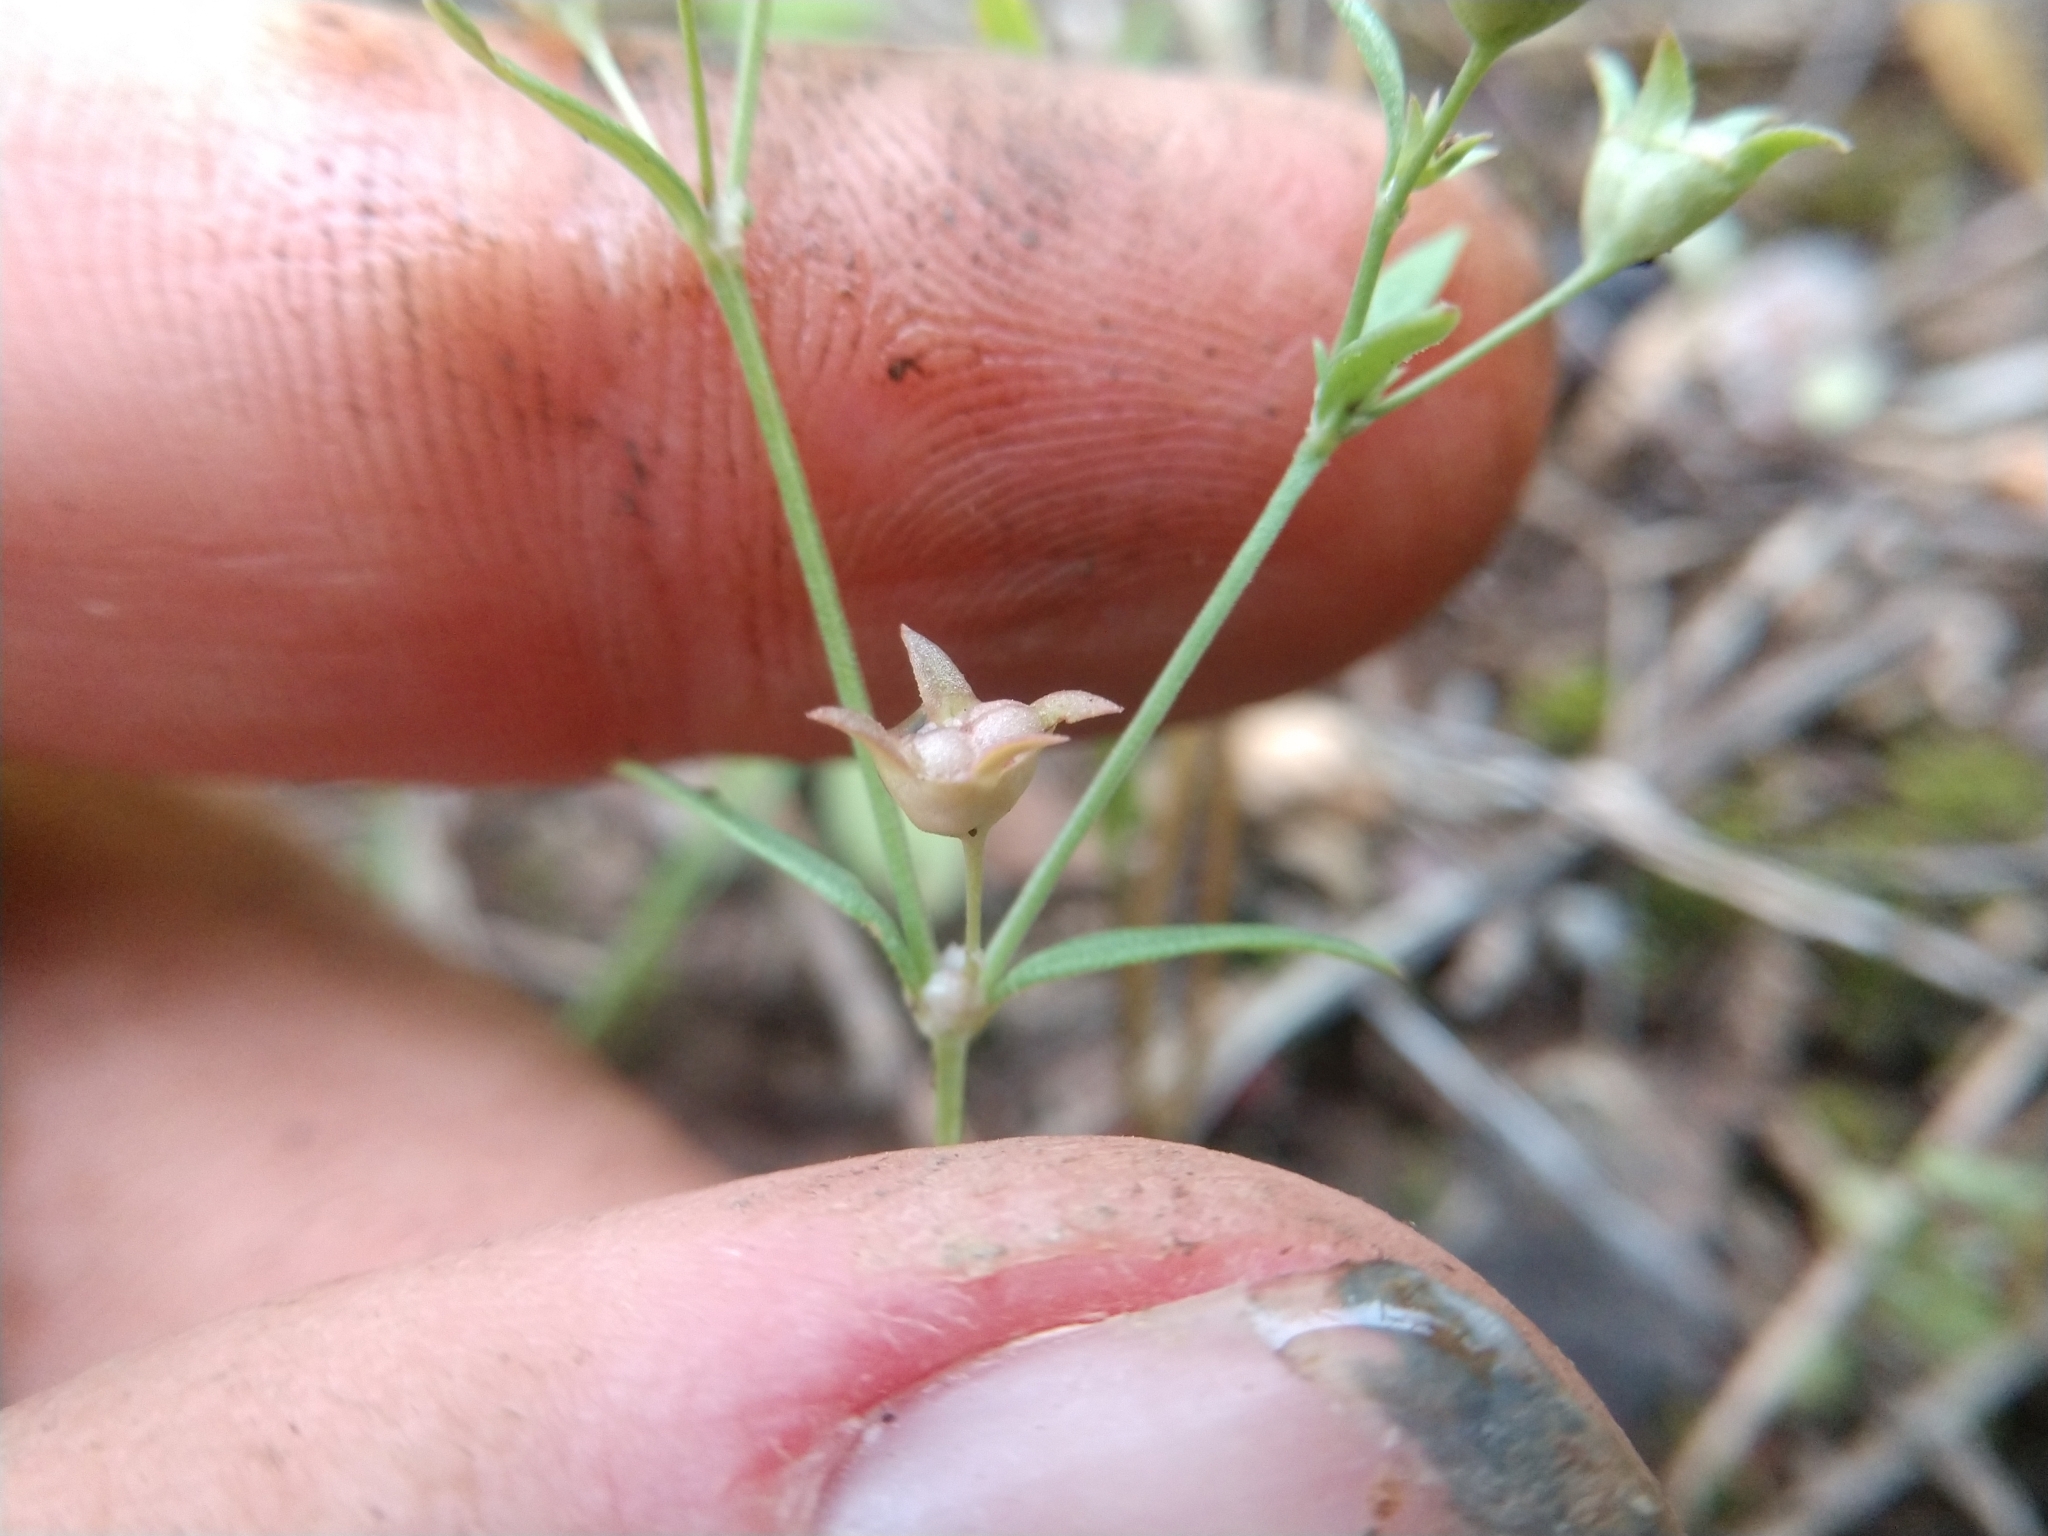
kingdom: Plantae
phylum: Tracheophyta
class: Magnoliopsida
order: Gentianales
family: Rubiaceae
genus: Houstonia
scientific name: Houstonia parviflora
